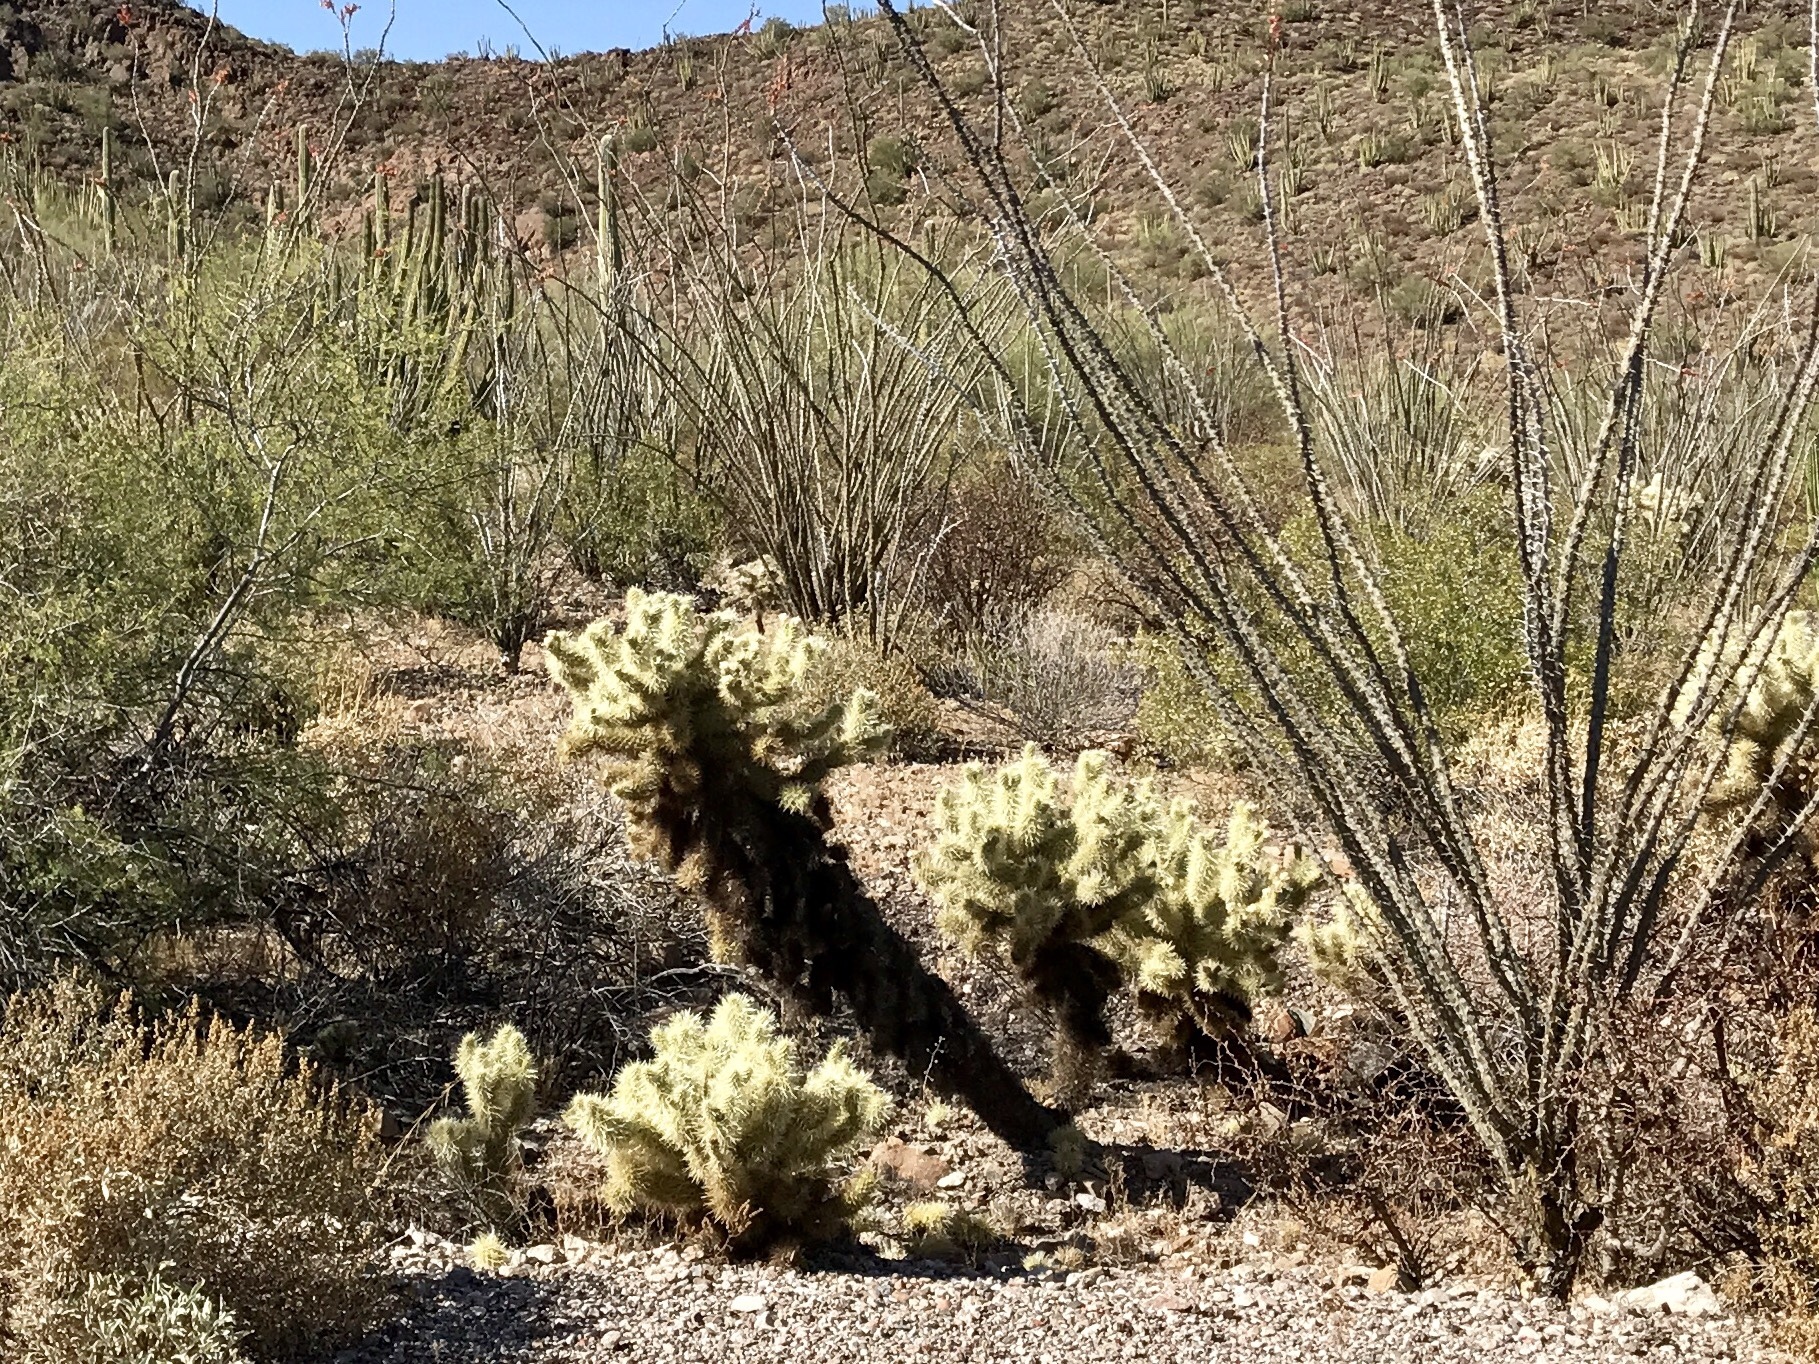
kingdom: Plantae
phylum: Tracheophyta
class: Magnoliopsida
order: Caryophyllales
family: Cactaceae
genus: Cylindropuntia
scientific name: Cylindropuntia fosbergii
